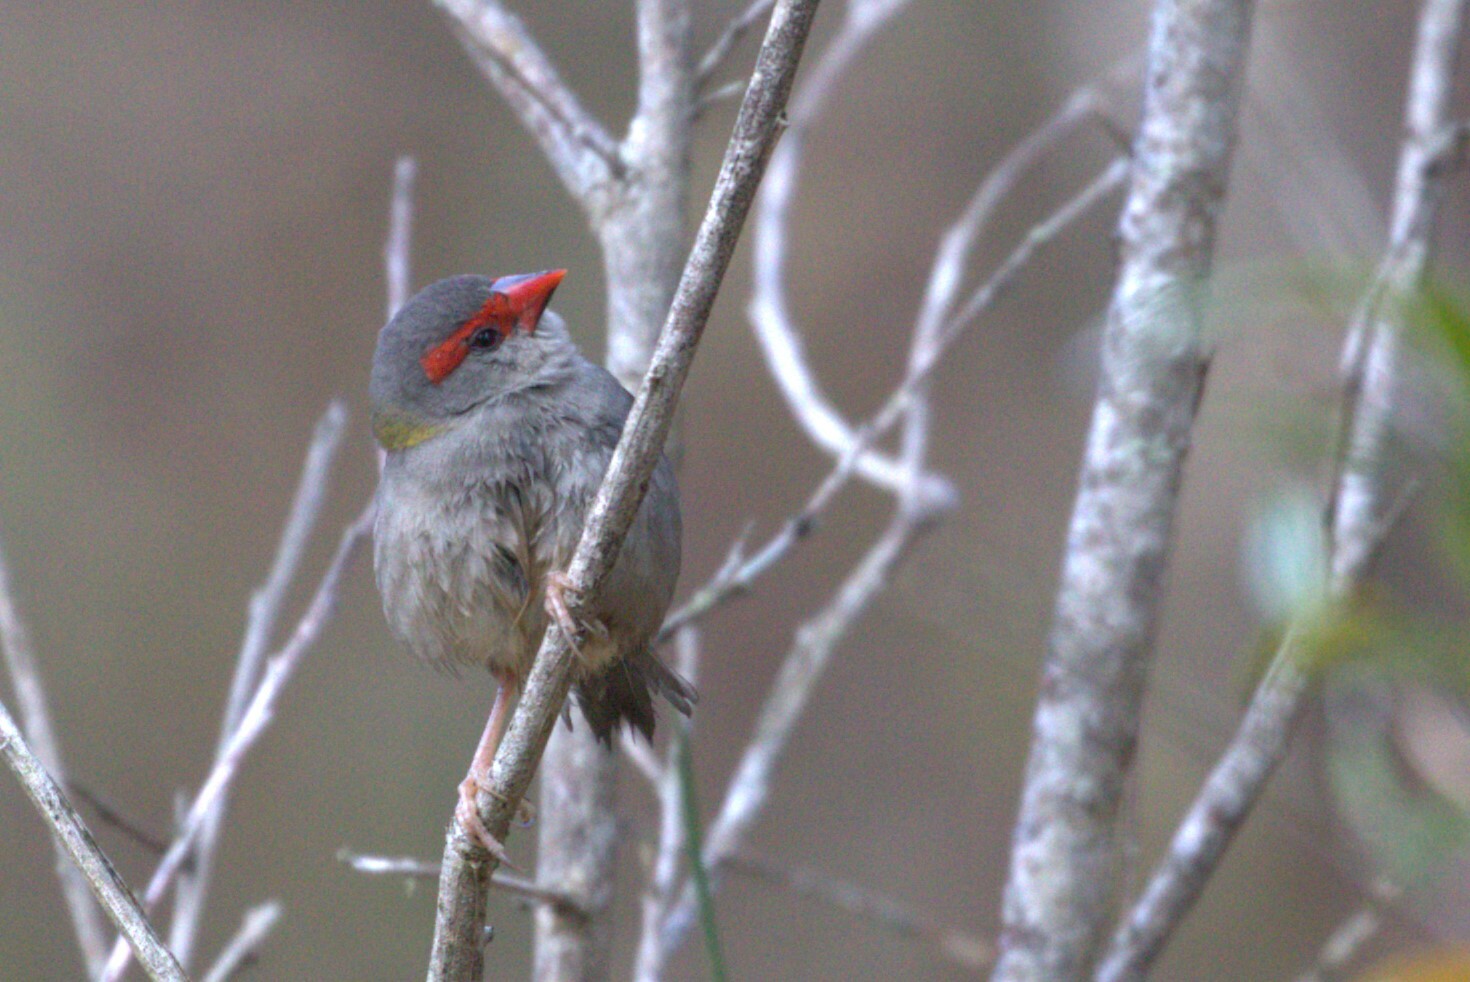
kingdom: Animalia
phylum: Chordata
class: Aves
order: Passeriformes
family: Estrildidae
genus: Neochmia
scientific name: Neochmia temporalis
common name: Red-browed finch
